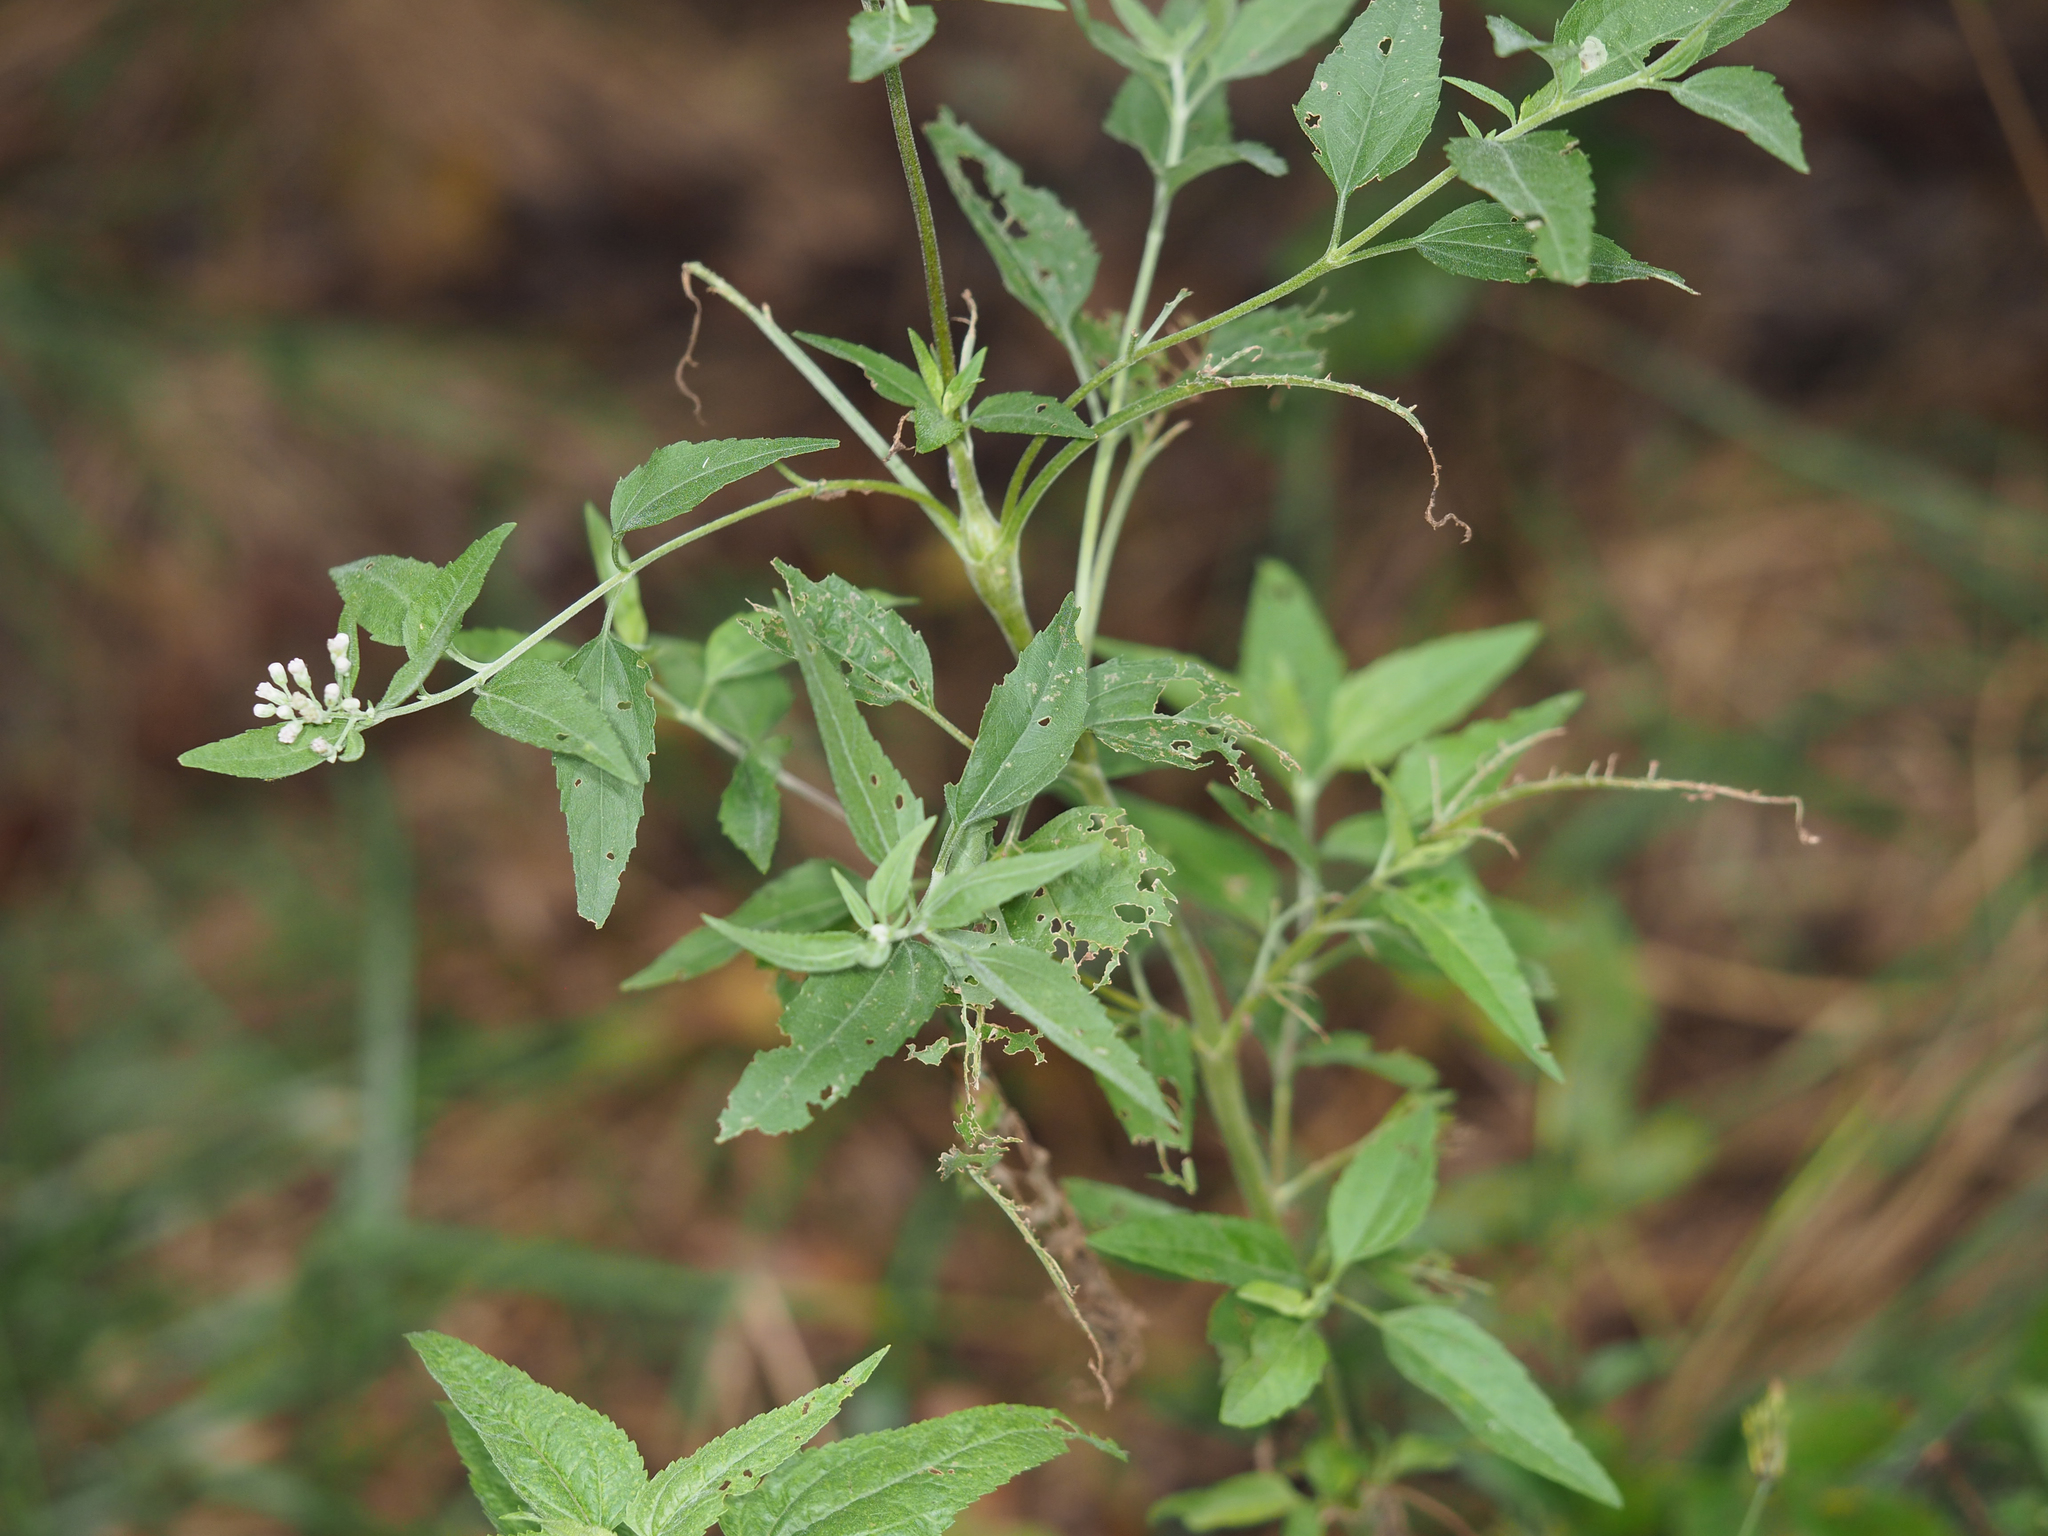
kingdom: Plantae
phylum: Tracheophyta
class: Magnoliopsida
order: Asterales
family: Asteraceae
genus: Eupatorium
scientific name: Eupatorium serotinum
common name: Late boneset
